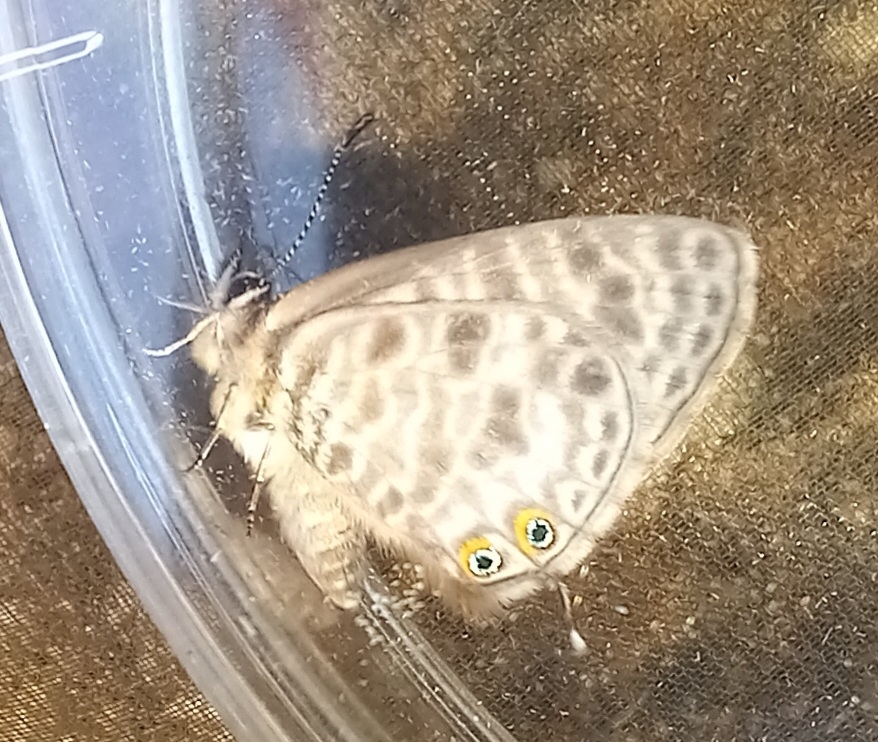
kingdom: Animalia
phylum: Arthropoda
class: Insecta
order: Lepidoptera
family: Lycaenidae
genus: Leptotes
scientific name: Leptotes pirithous
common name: Lang's short-tailed blue
